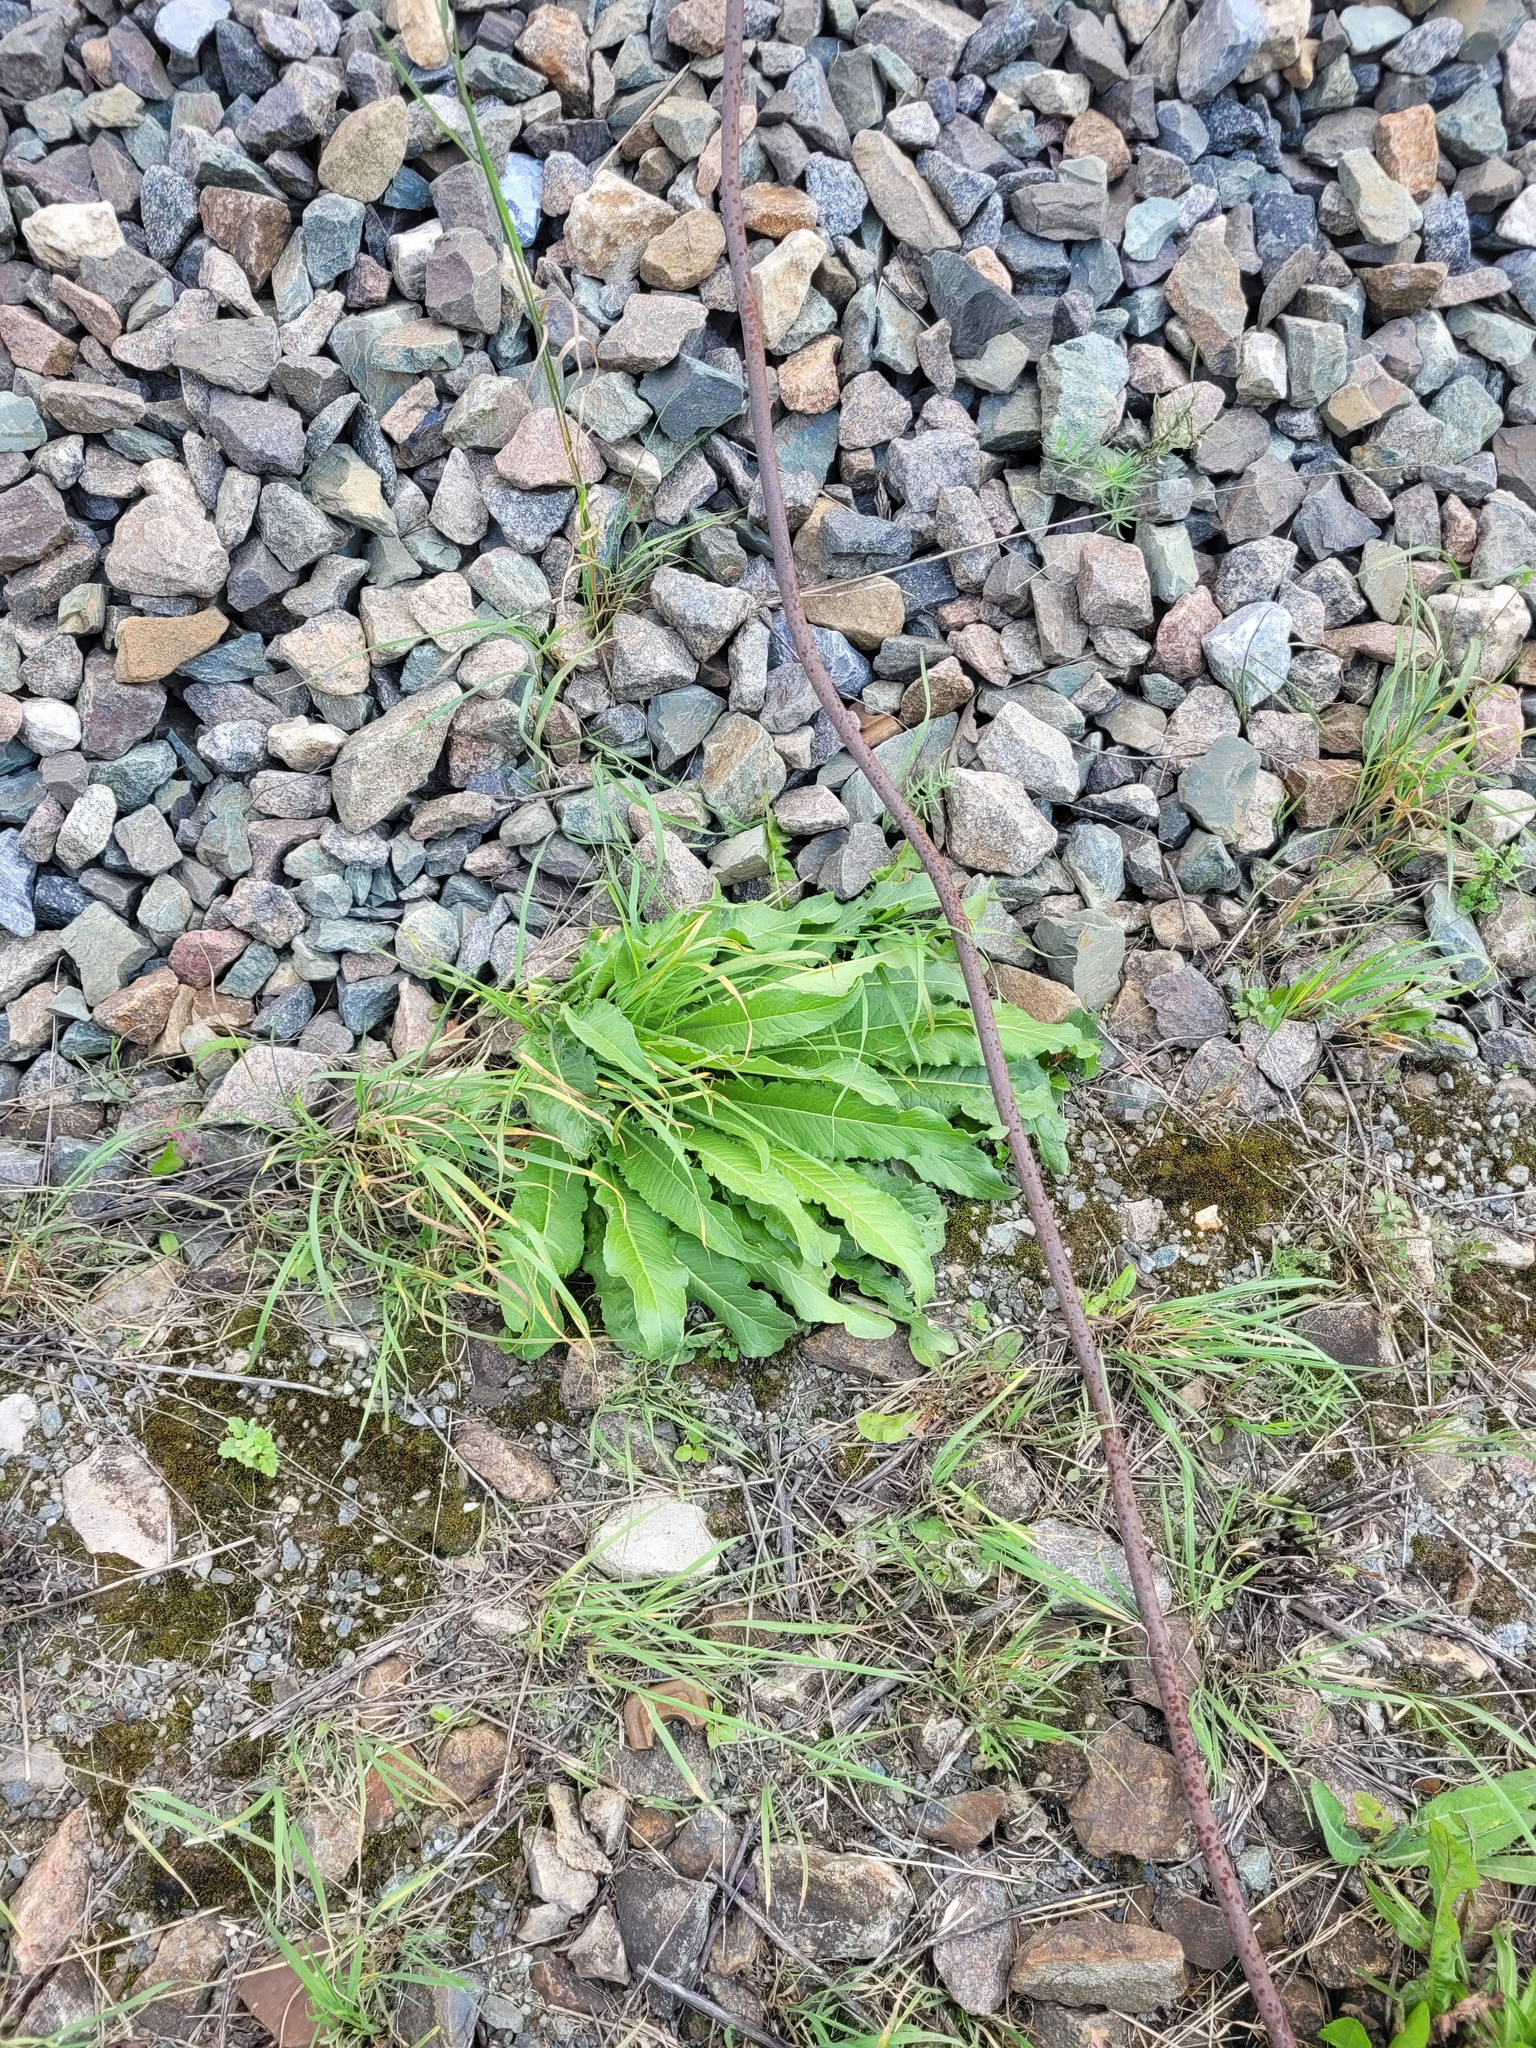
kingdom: Plantae
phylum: Tracheophyta
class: Magnoliopsida
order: Brassicales
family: Brassicaceae
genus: Bunias
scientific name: Bunias orientalis
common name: Warty-cabbage
